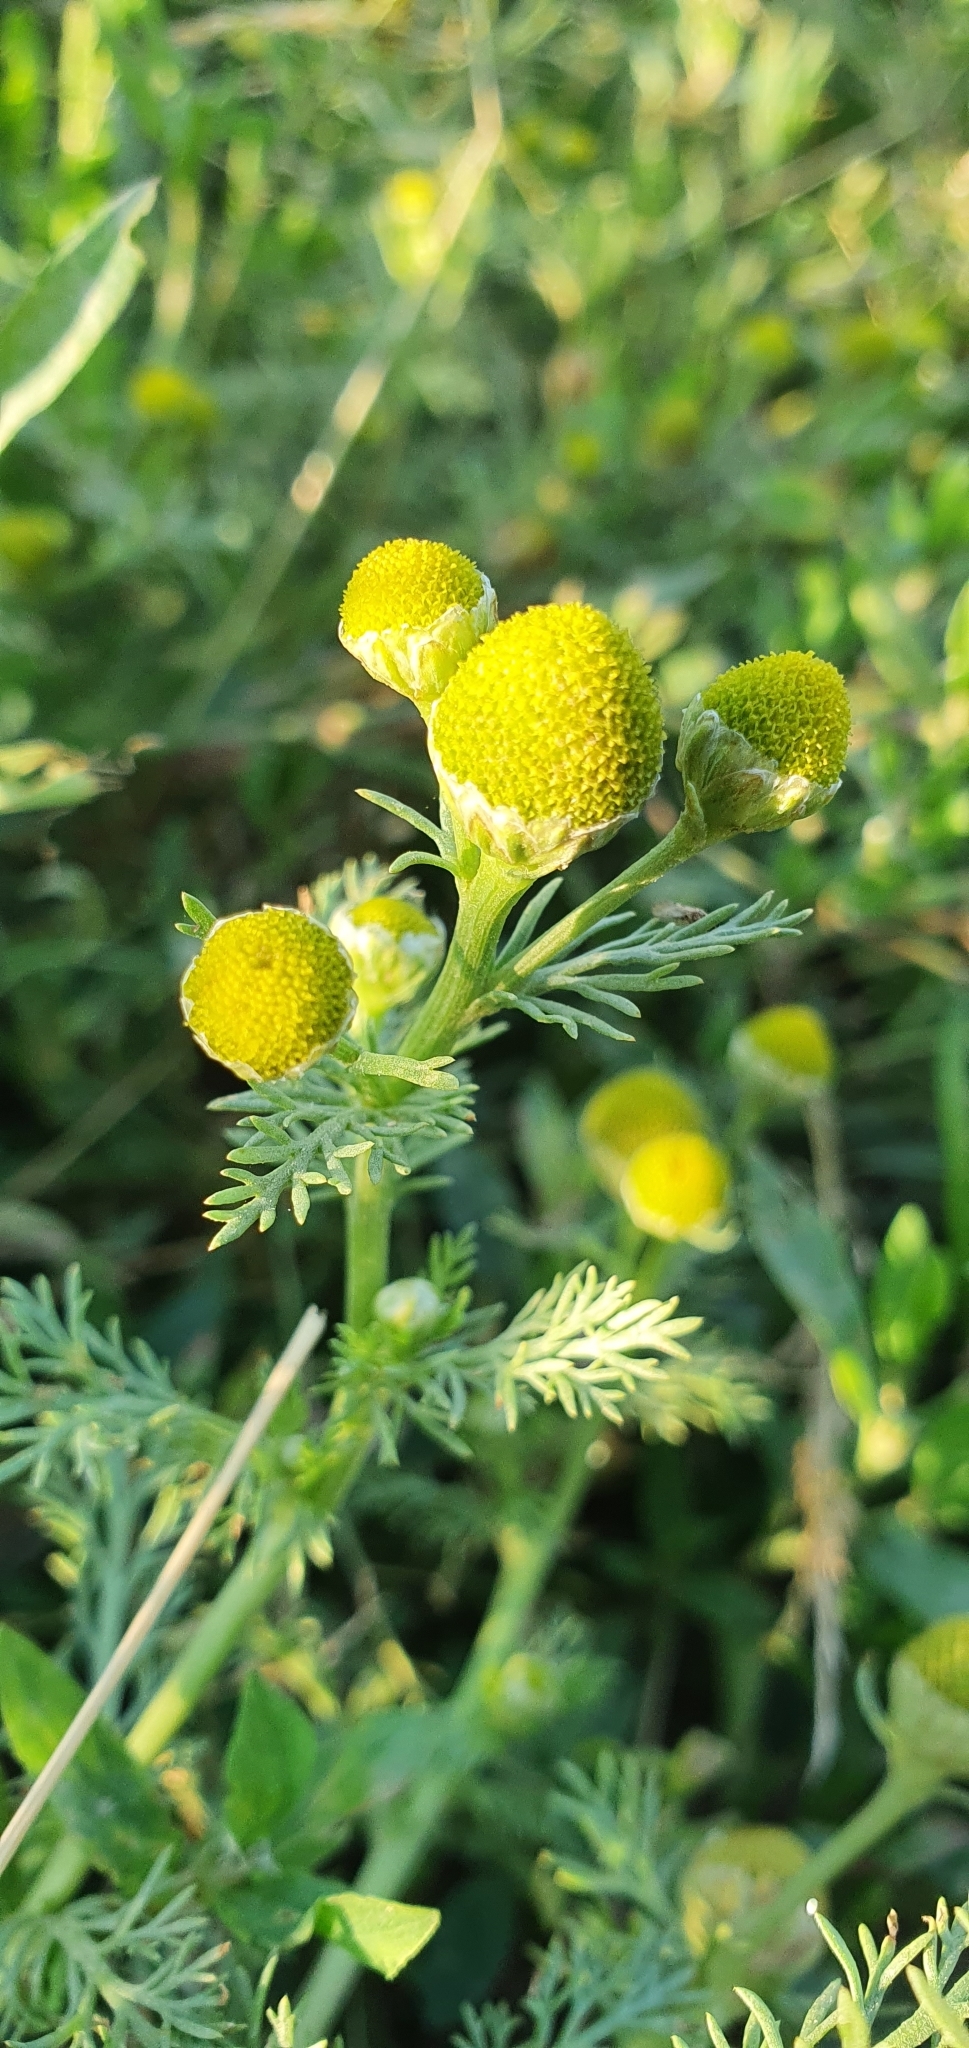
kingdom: Plantae
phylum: Tracheophyta
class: Magnoliopsida
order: Asterales
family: Asteraceae
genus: Matricaria
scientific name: Matricaria discoidea
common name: Disc mayweed
